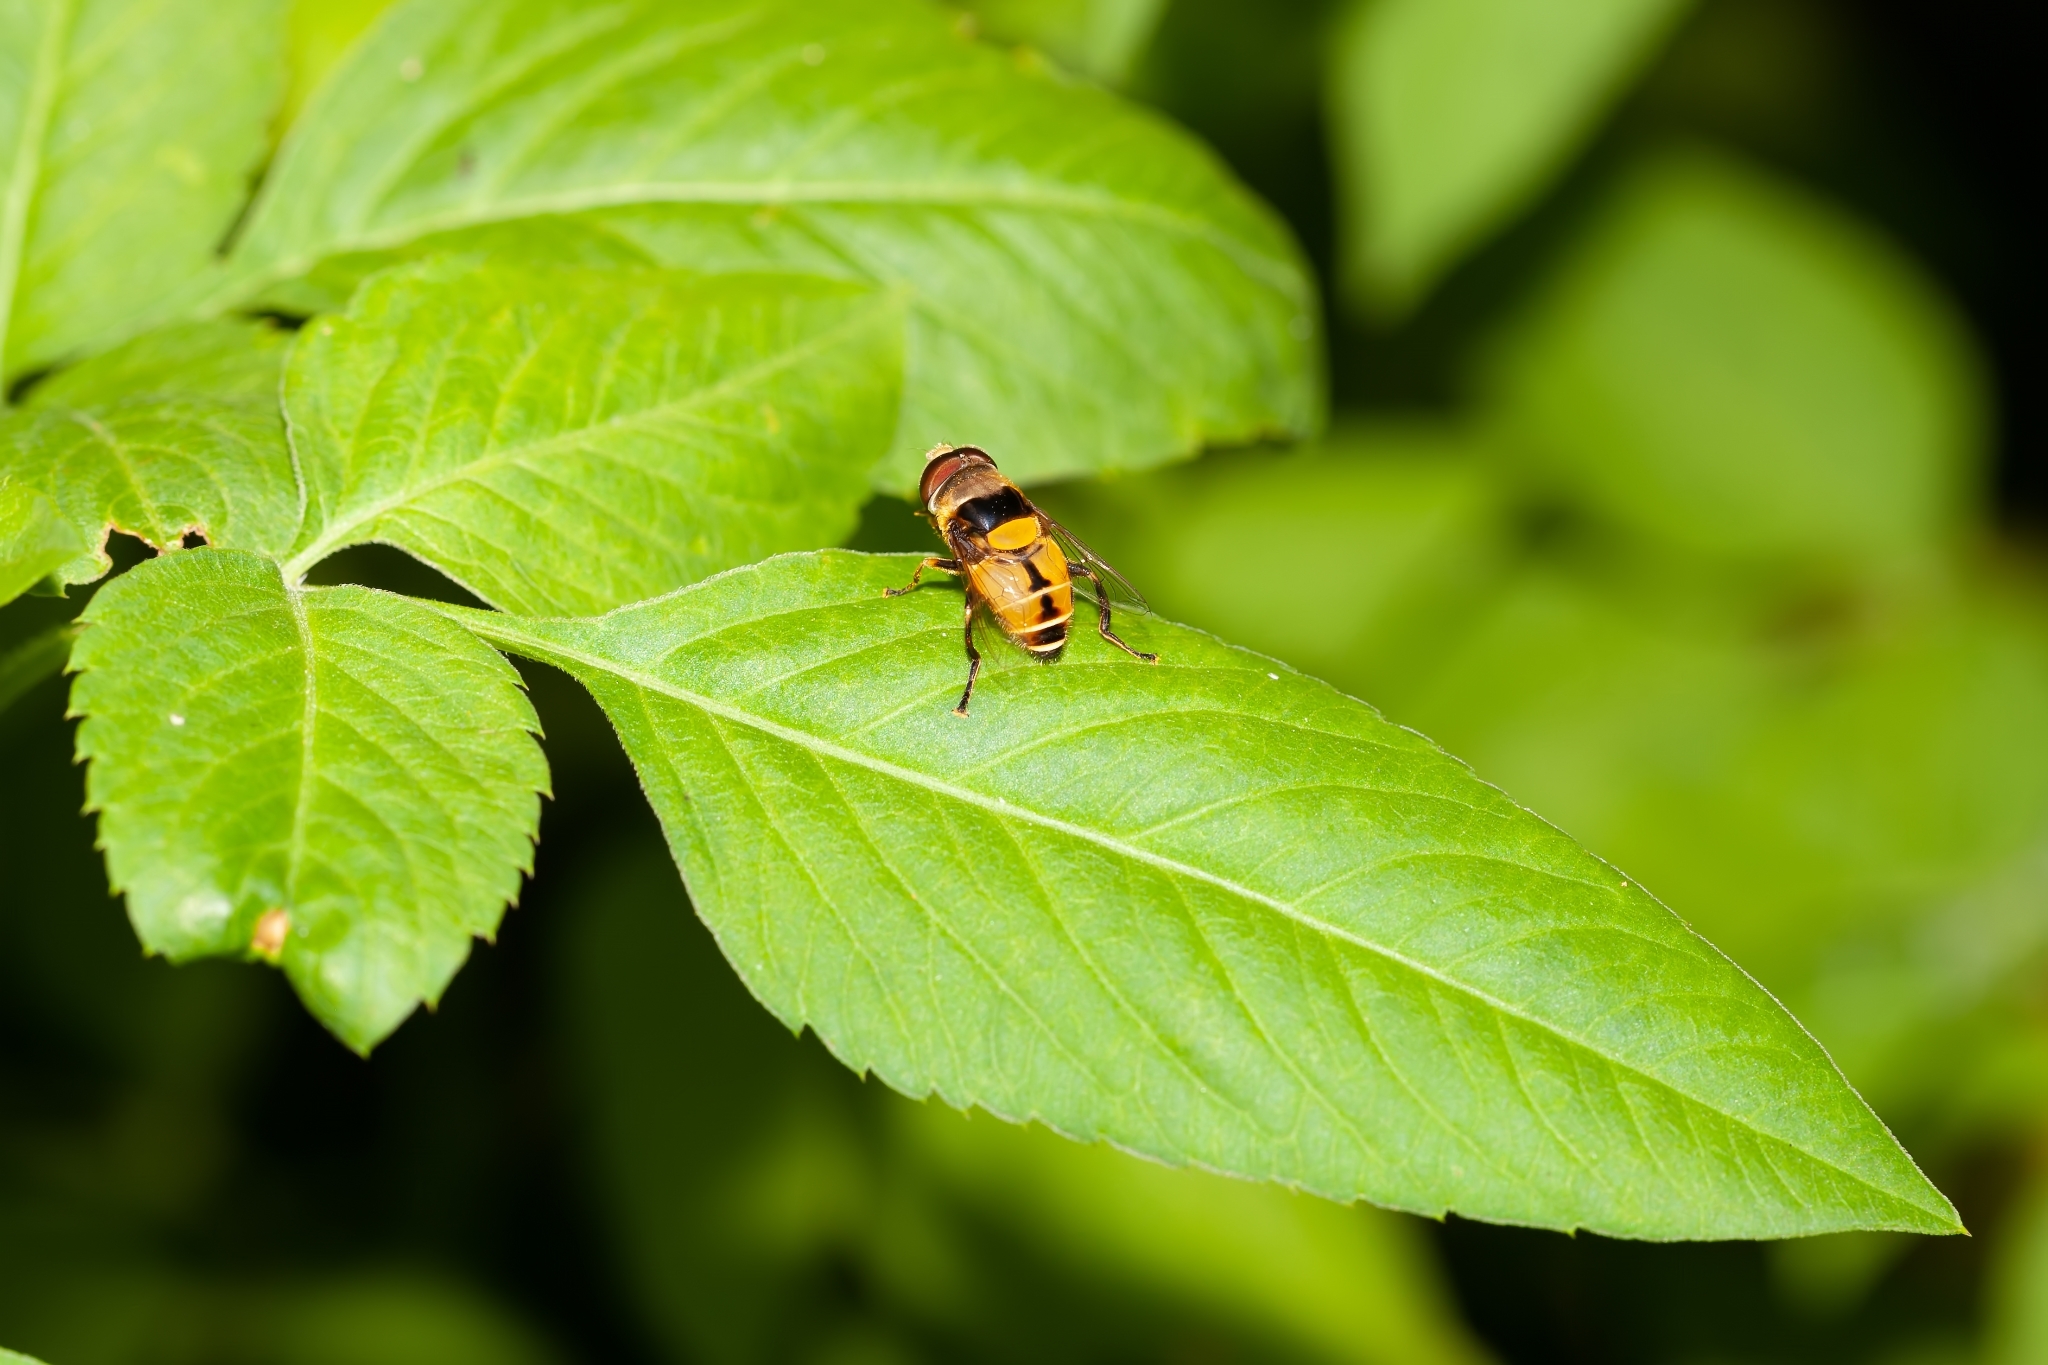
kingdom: Animalia
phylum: Arthropoda
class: Insecta
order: Diptera
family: Syrphidae
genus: Palpada
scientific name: Palpada pusilla
